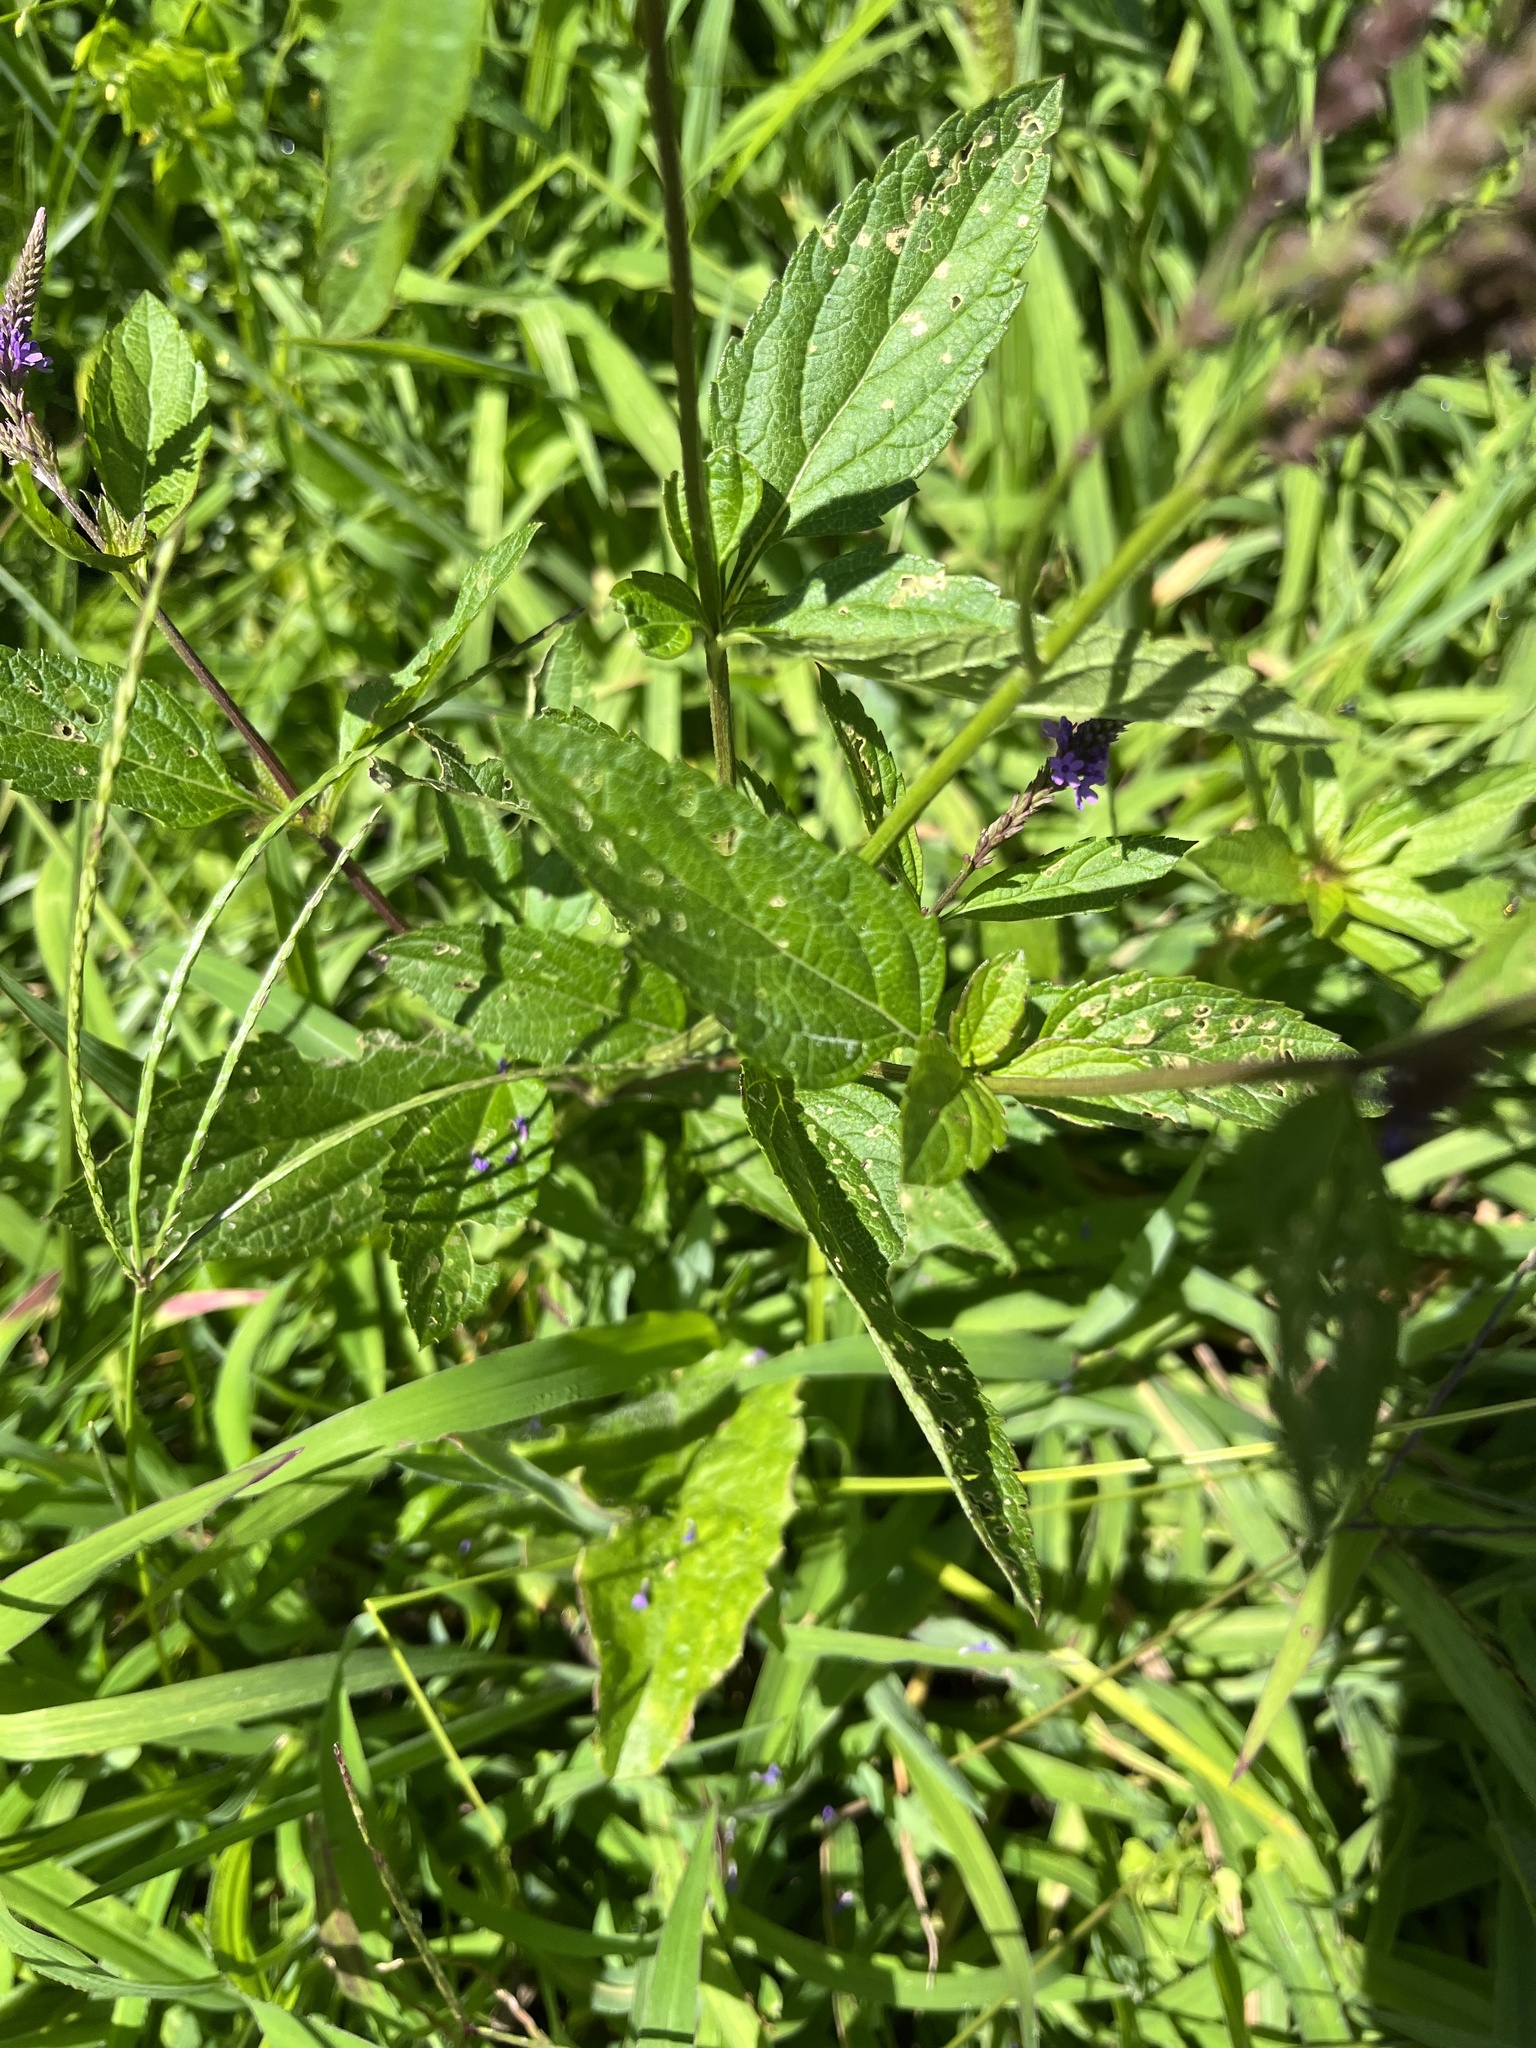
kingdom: Plantae
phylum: Tracheophyta
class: Magnoliopsida
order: Lamiales
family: Verbenaceae
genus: Verbena
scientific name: Verbena hastata
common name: American blue vervain
